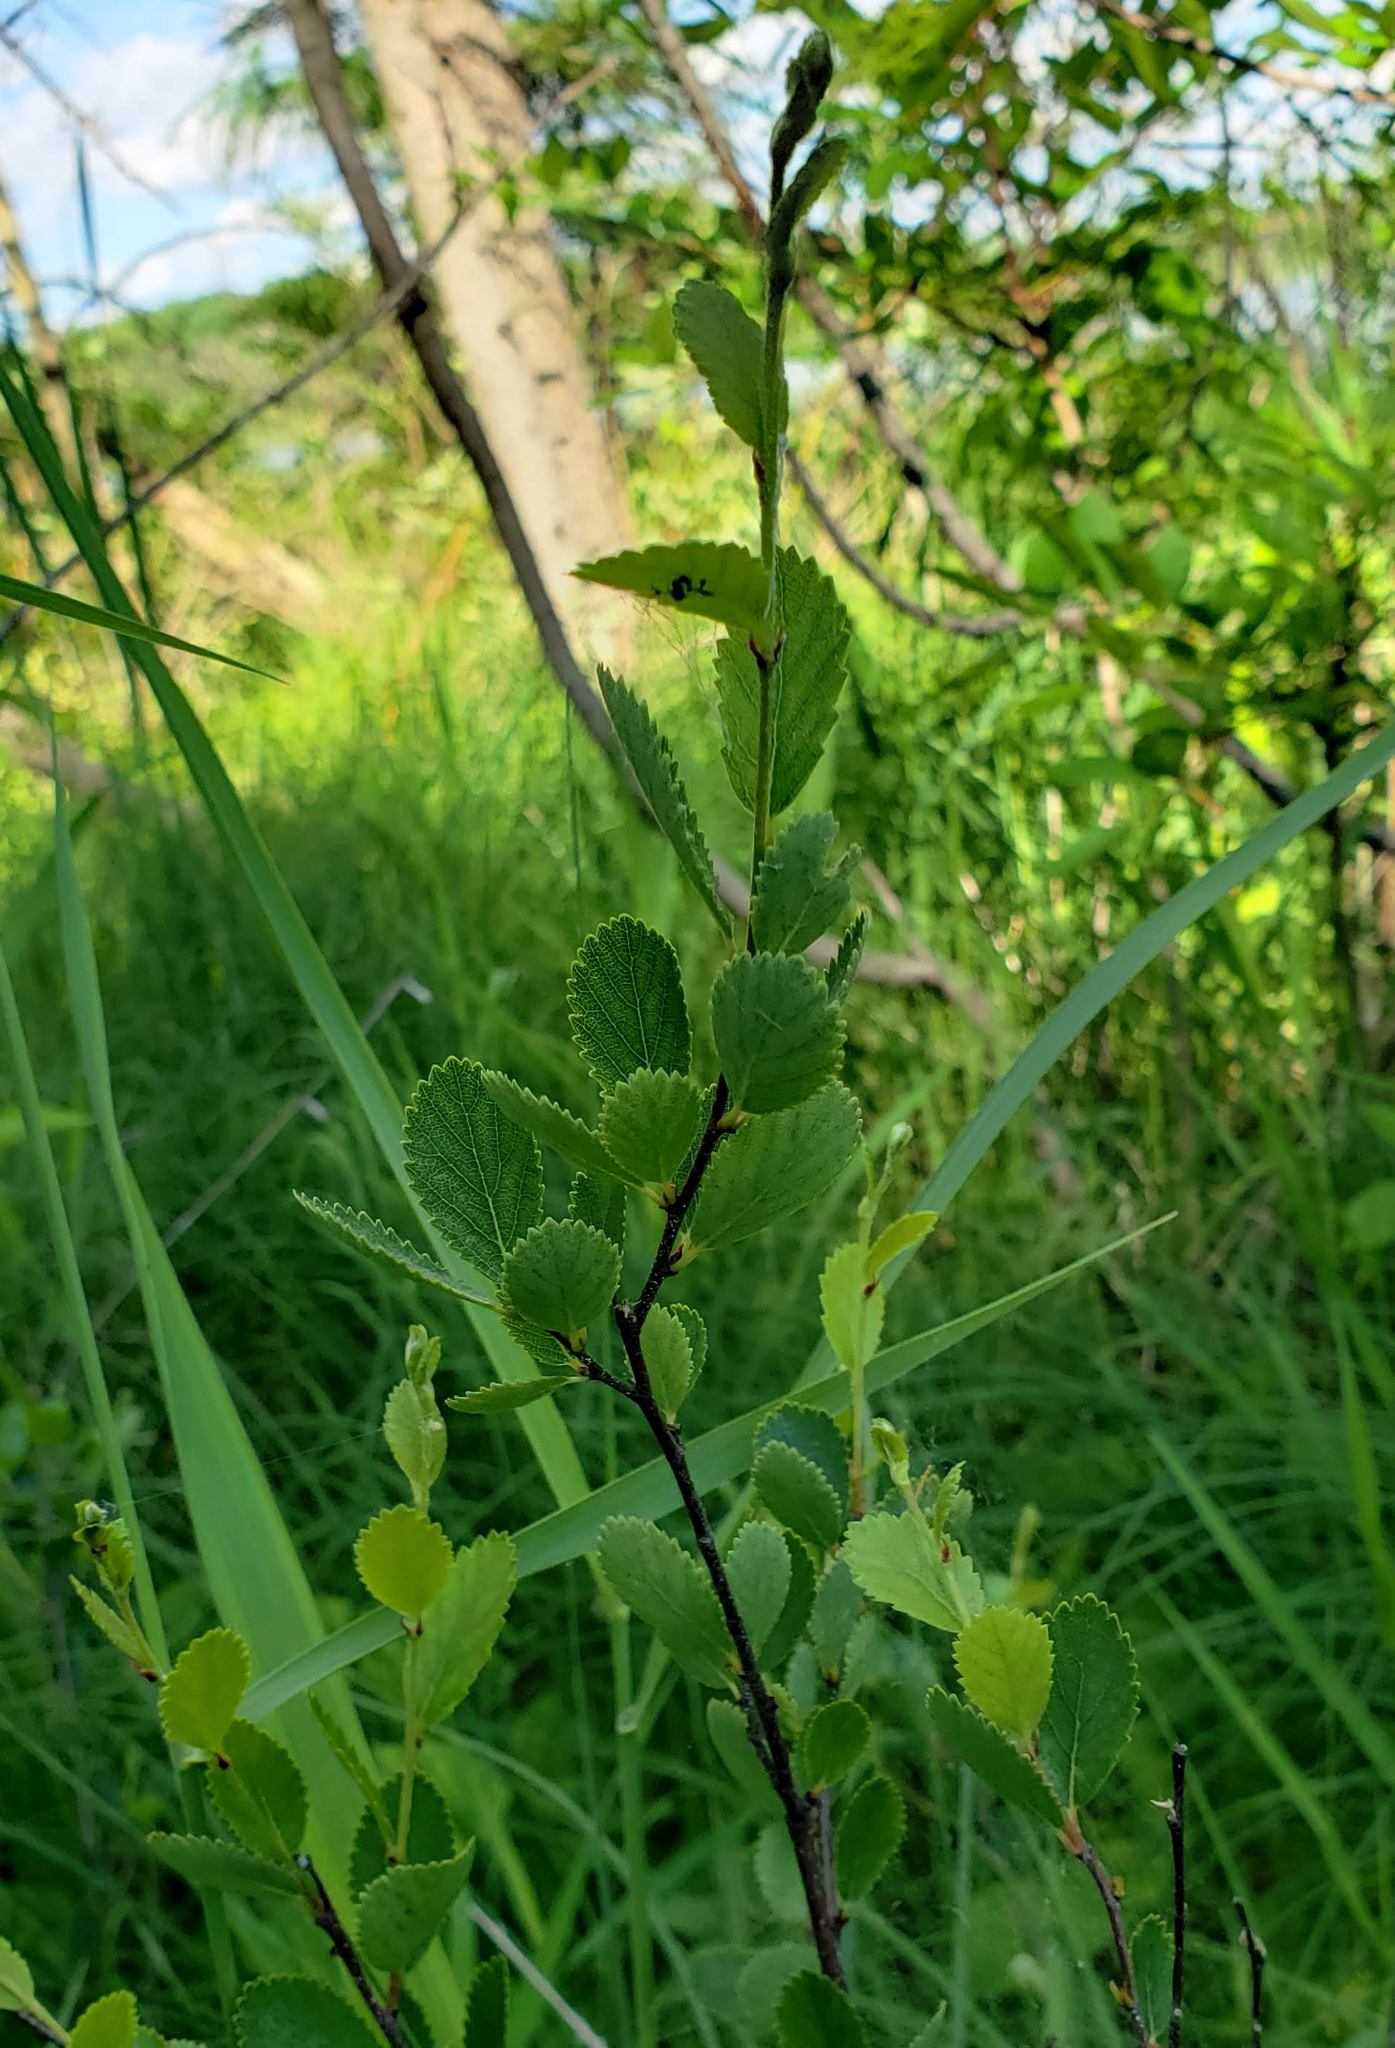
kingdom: Plantae
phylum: Tracheophyta
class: Magnoliopsida
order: Fagales
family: Betulaceae
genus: Betula
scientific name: Betula pumila
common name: Bog birch
